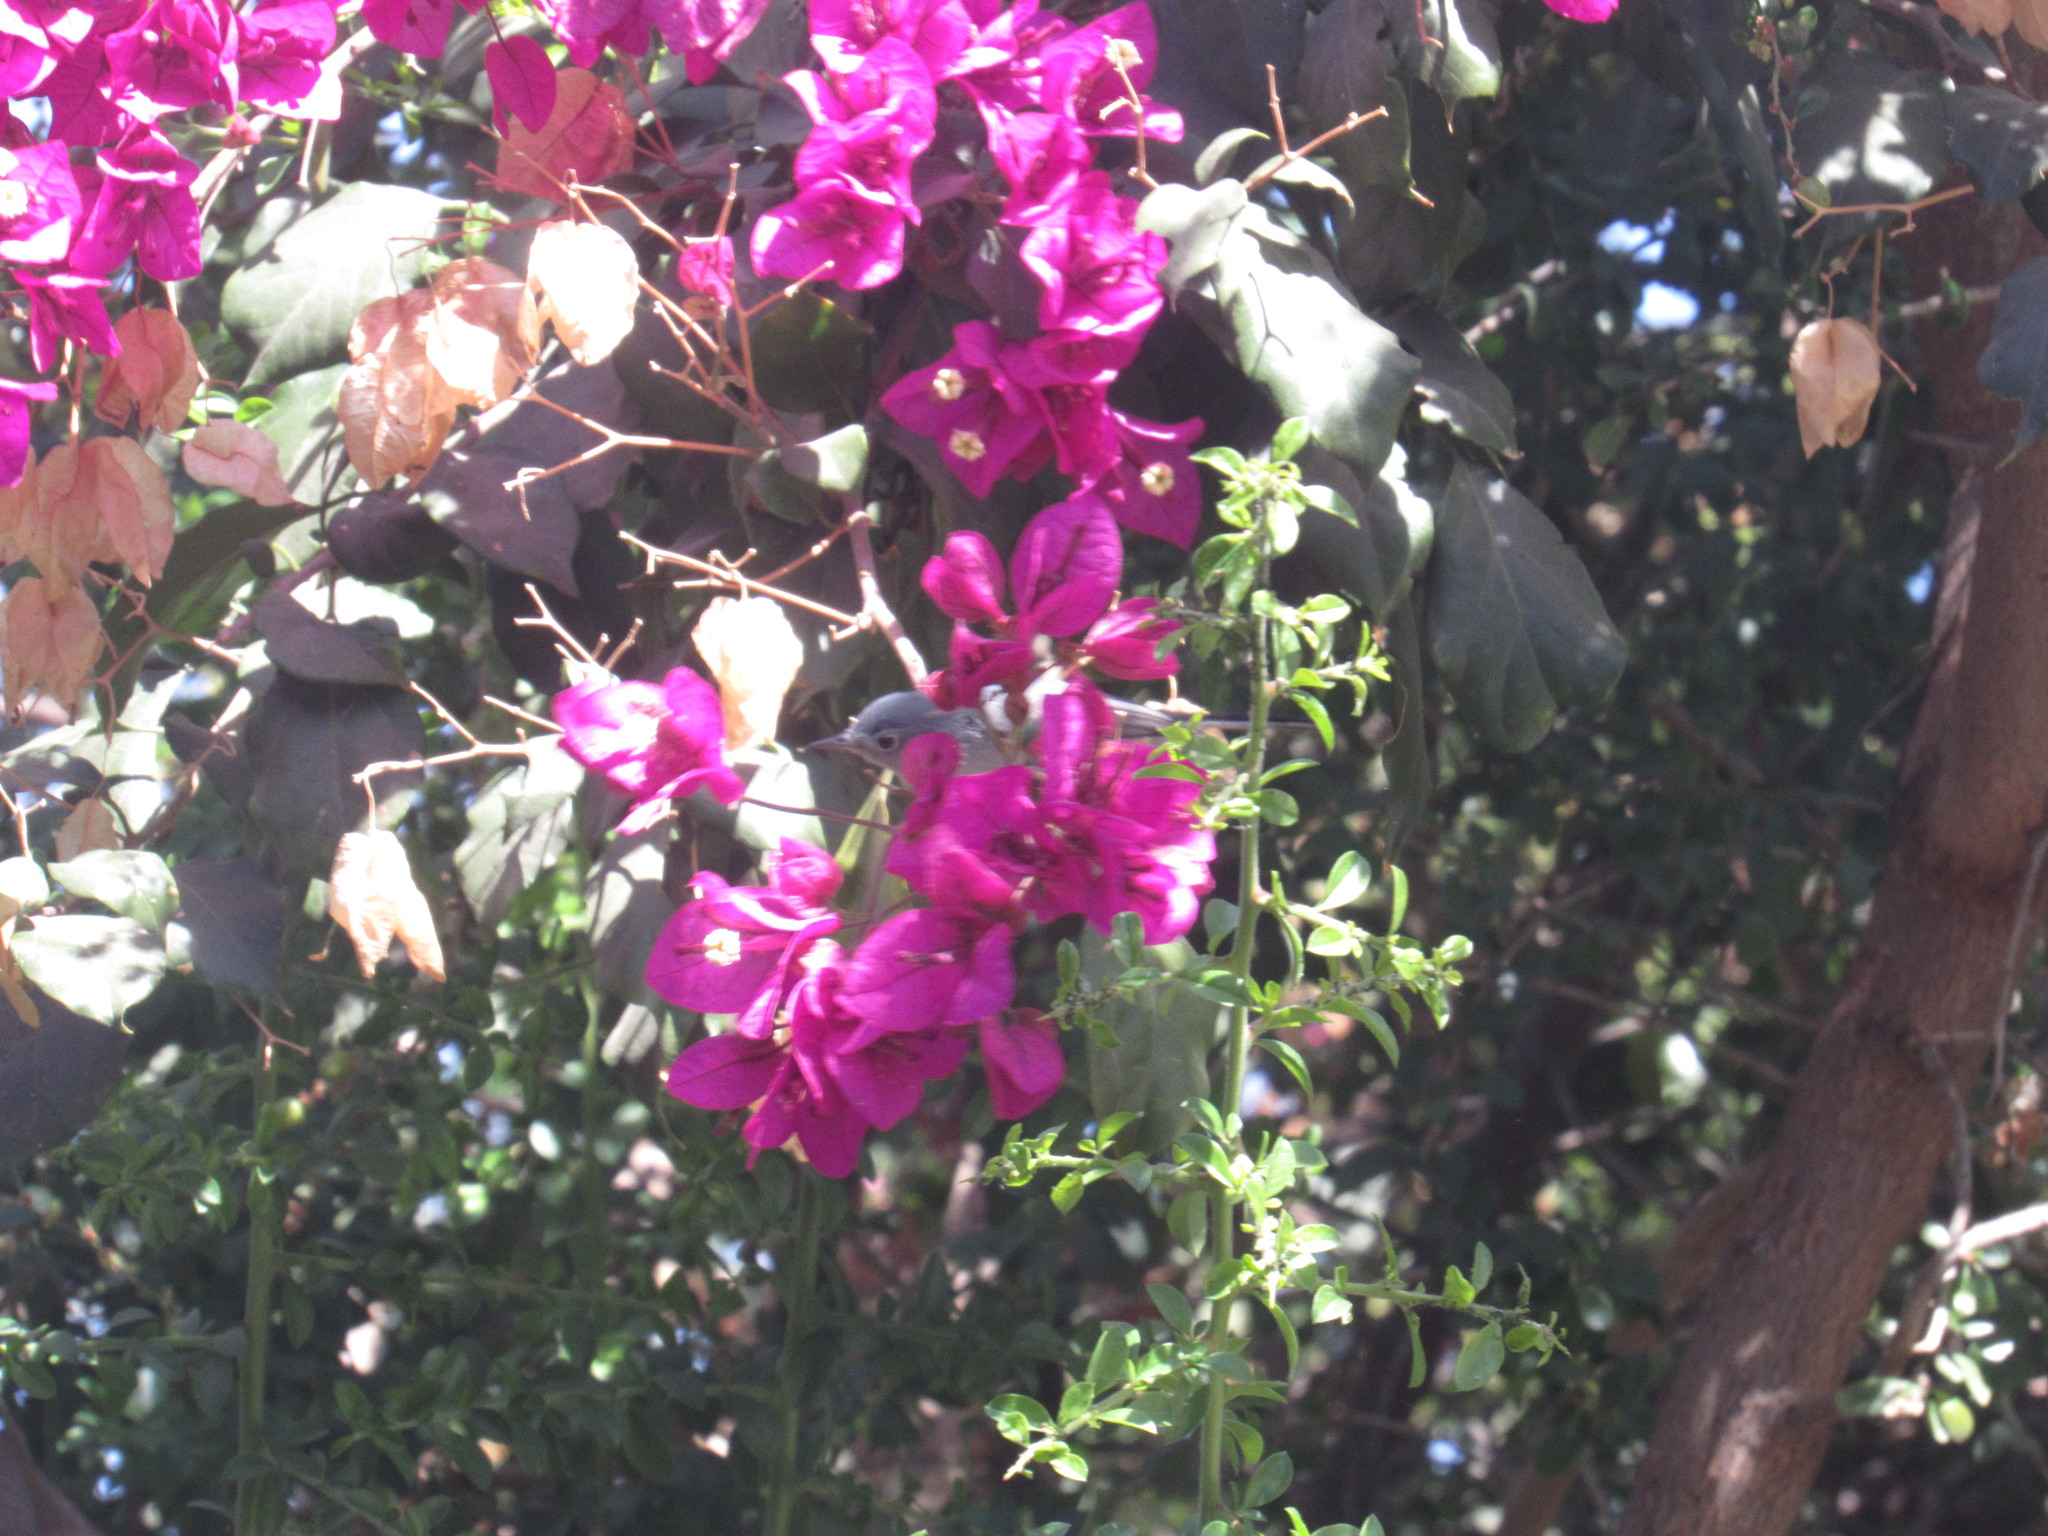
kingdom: Animalia
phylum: Chordata
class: Aves
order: Passeriformes
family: Polioptilidae
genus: Polioptila
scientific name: Polioptila caerulea
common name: Blue-gray gnatcatcher
